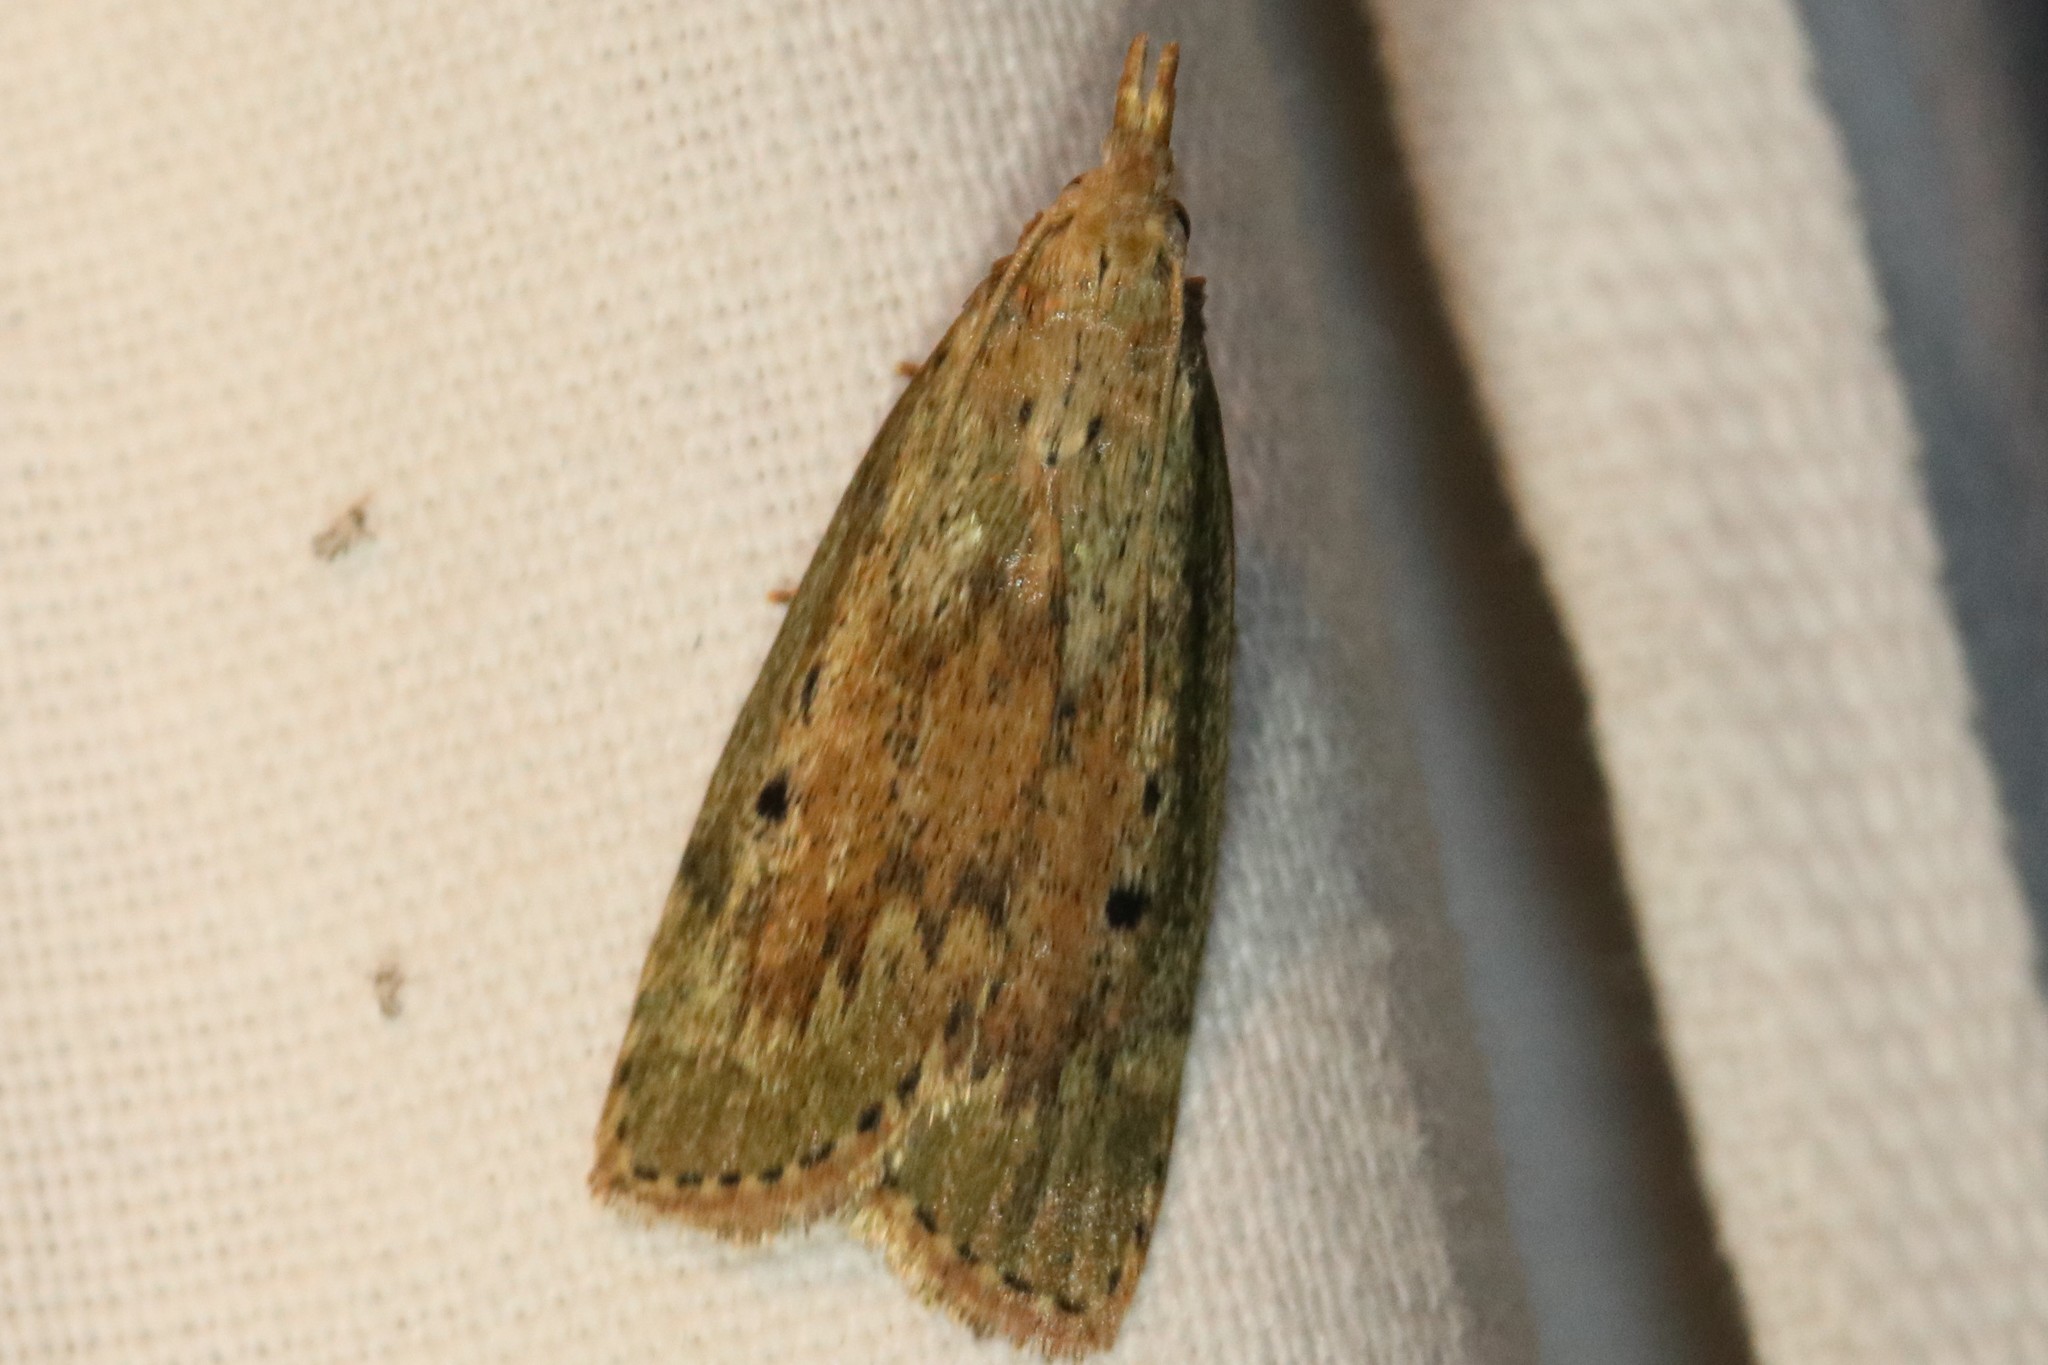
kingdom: Animalia
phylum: Arthropoda
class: Insecta
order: Lepidoptera
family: Pyralidae
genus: Aphomia
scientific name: Aphomia sociella
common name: Bee moth
